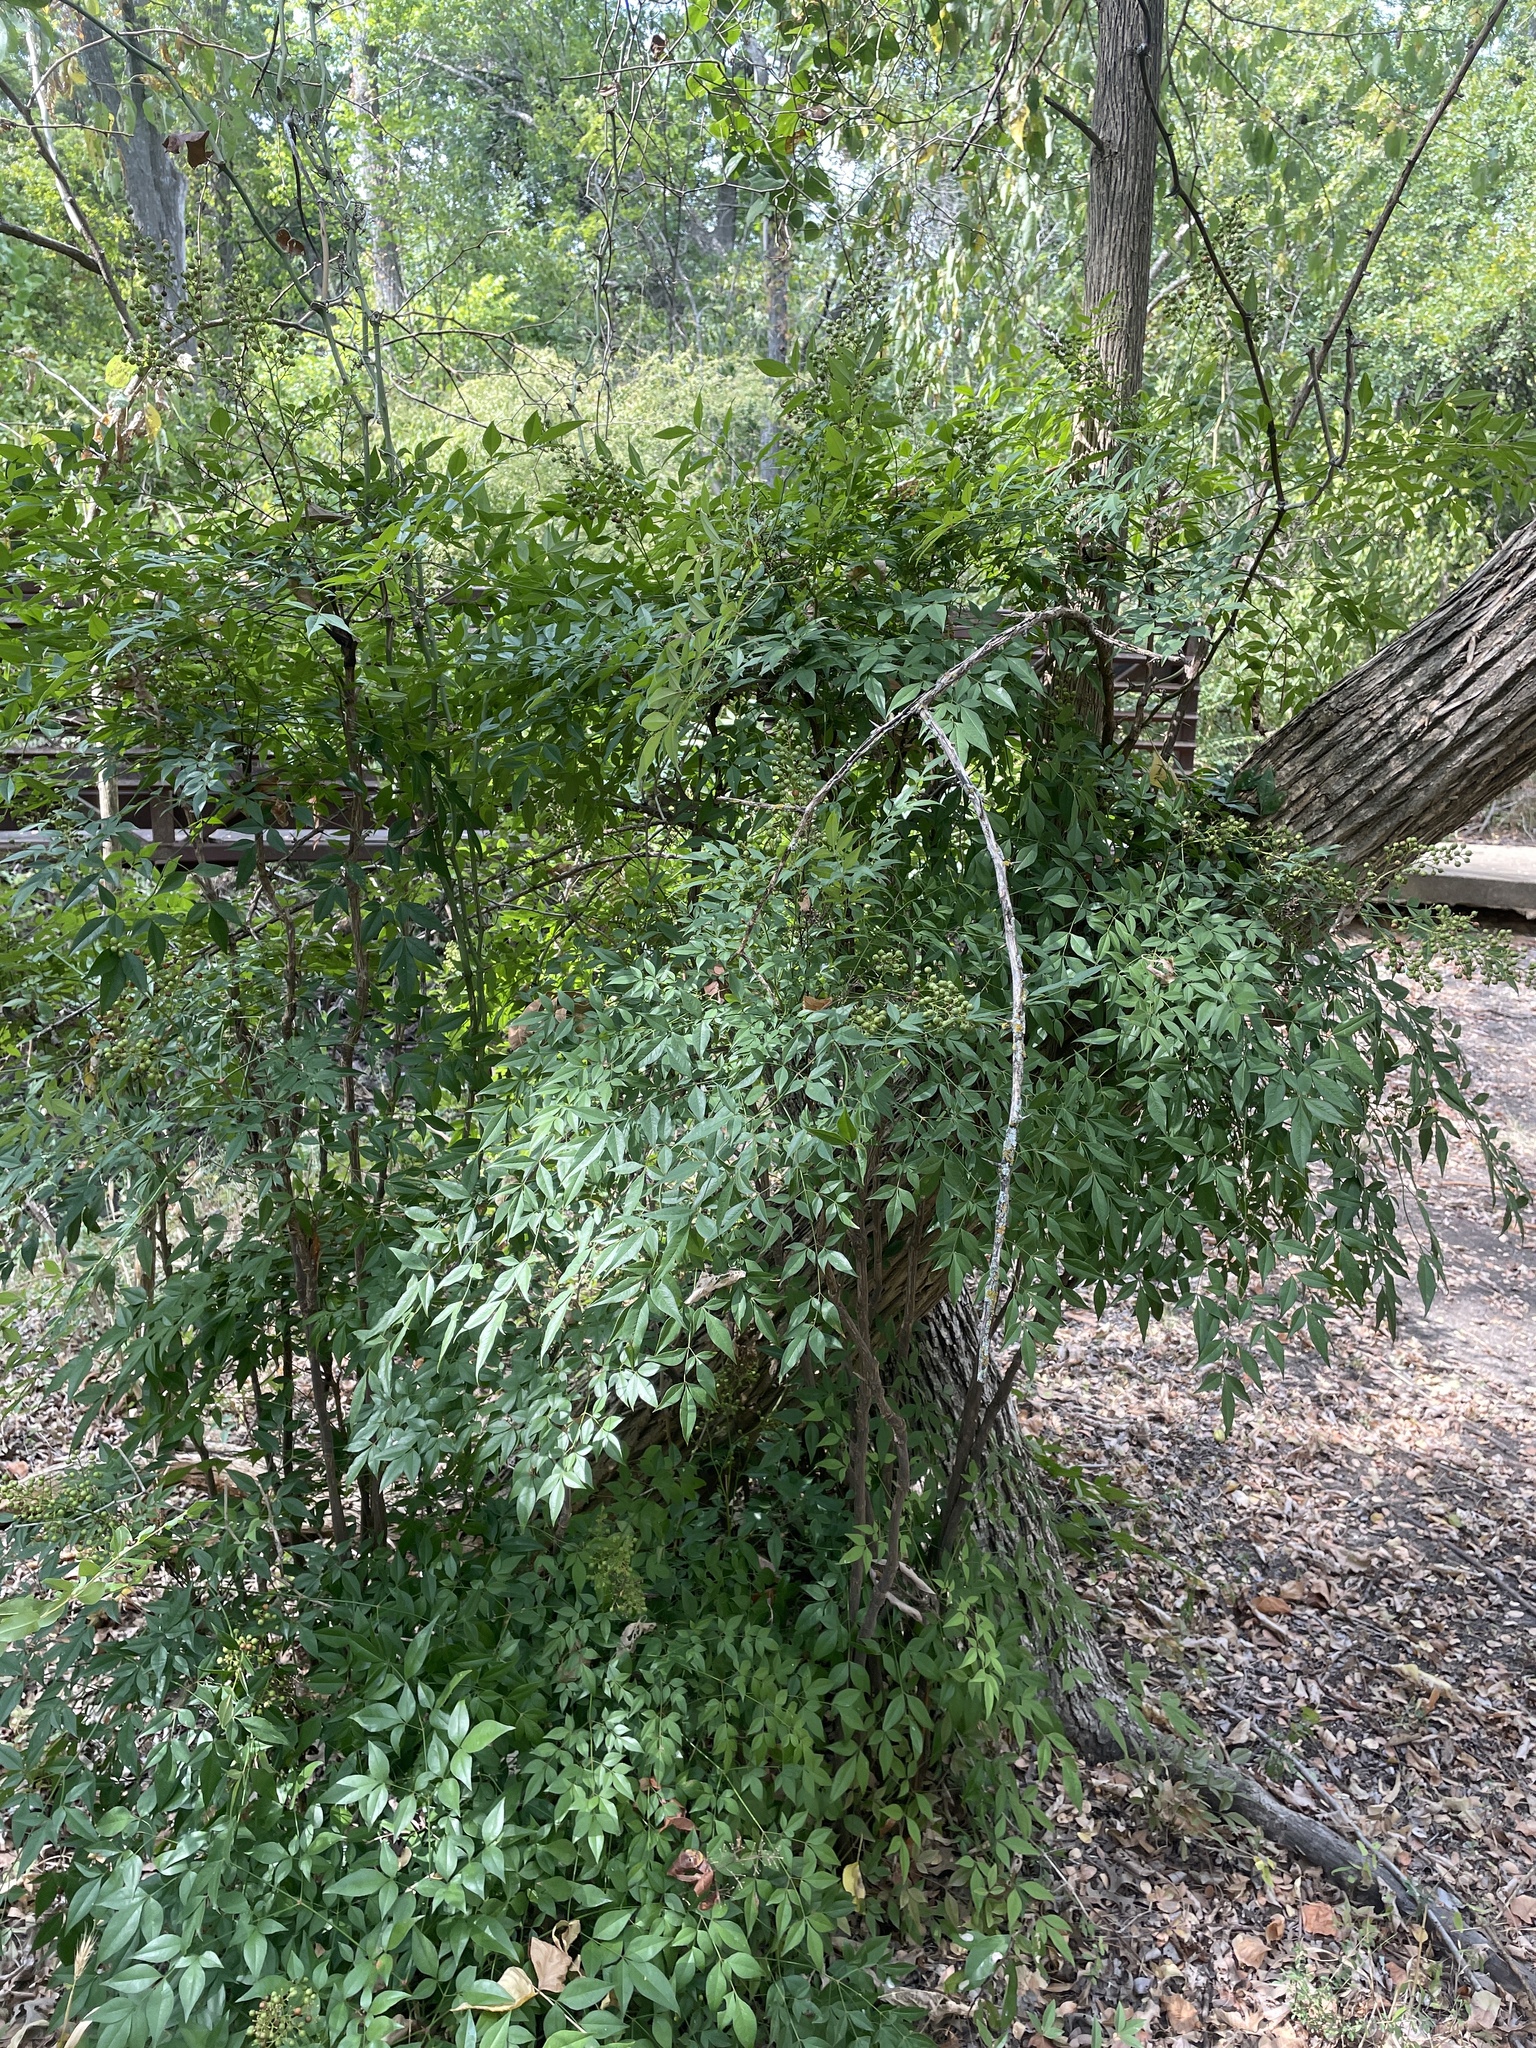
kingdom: Plantae
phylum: Tracheophyta
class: Magnoliopsida
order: Ranunculales
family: Berberidaceae
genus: Nandina
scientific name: Nandina domestica
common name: Sacred bamboo
